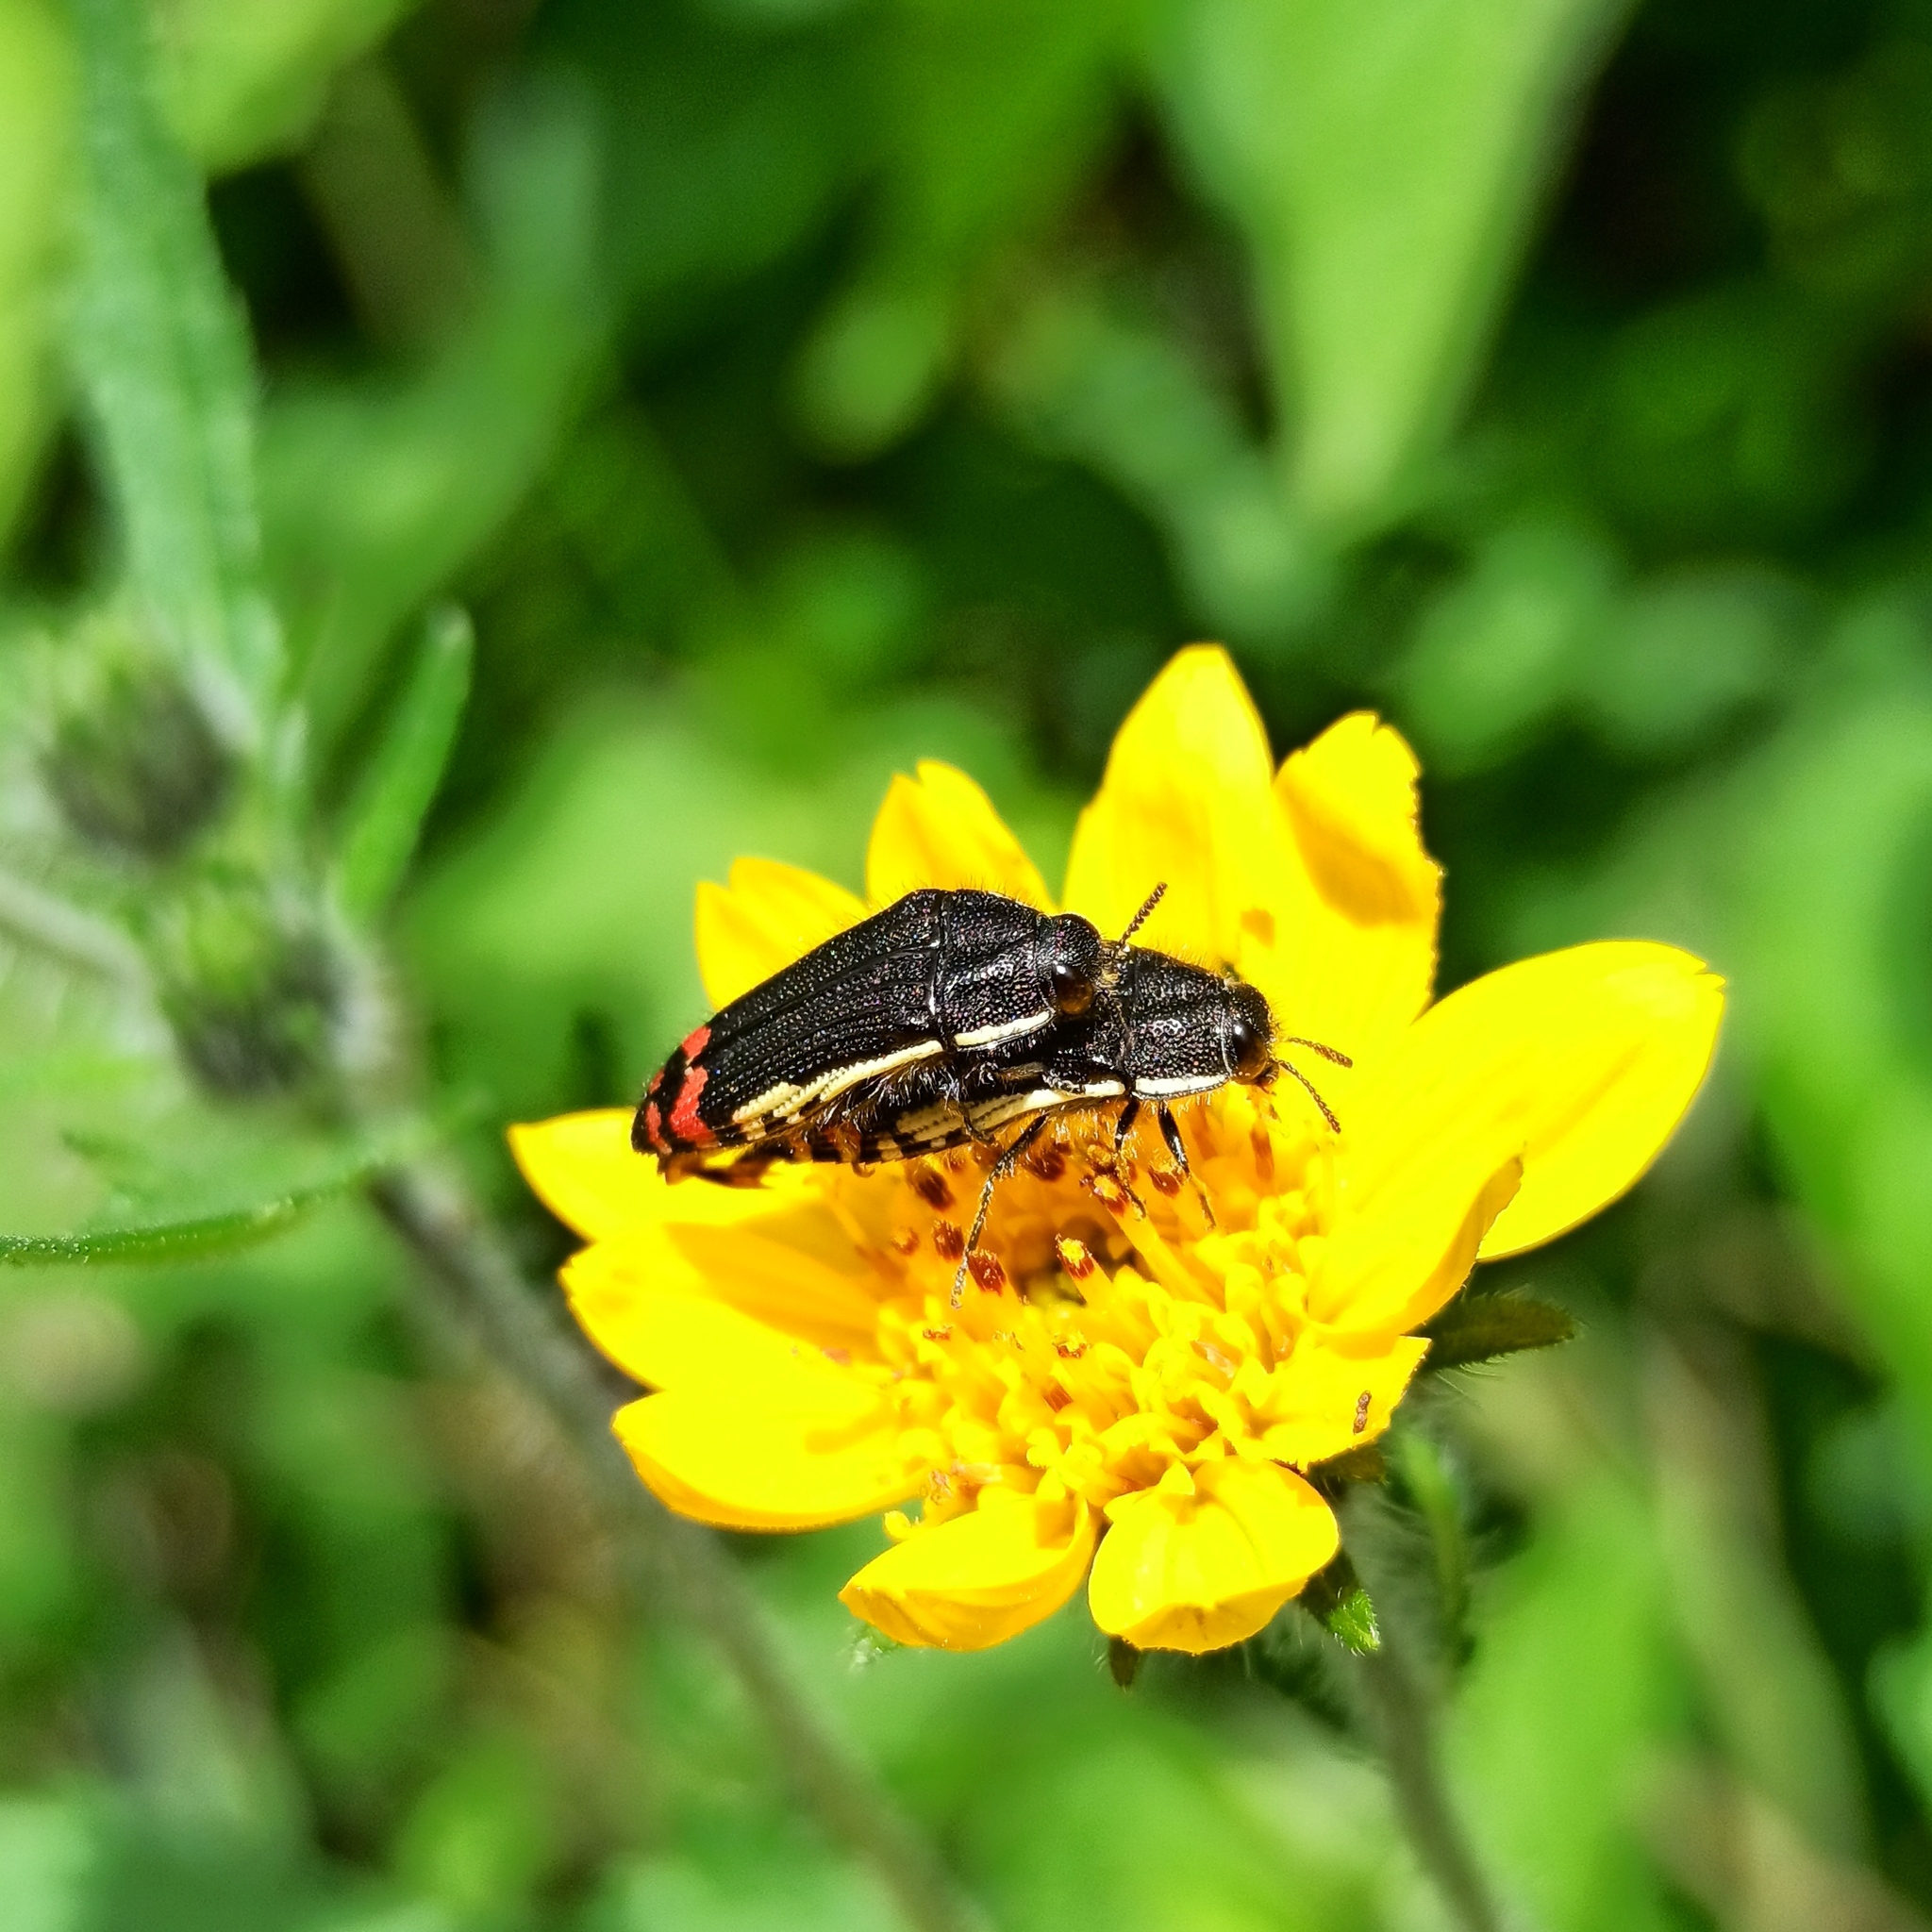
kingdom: Animalia
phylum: Arthropoda
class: Insecta
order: Coleoptera
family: Buprestidae
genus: Acmaeodera
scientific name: Acmaeodera flavomarginata
